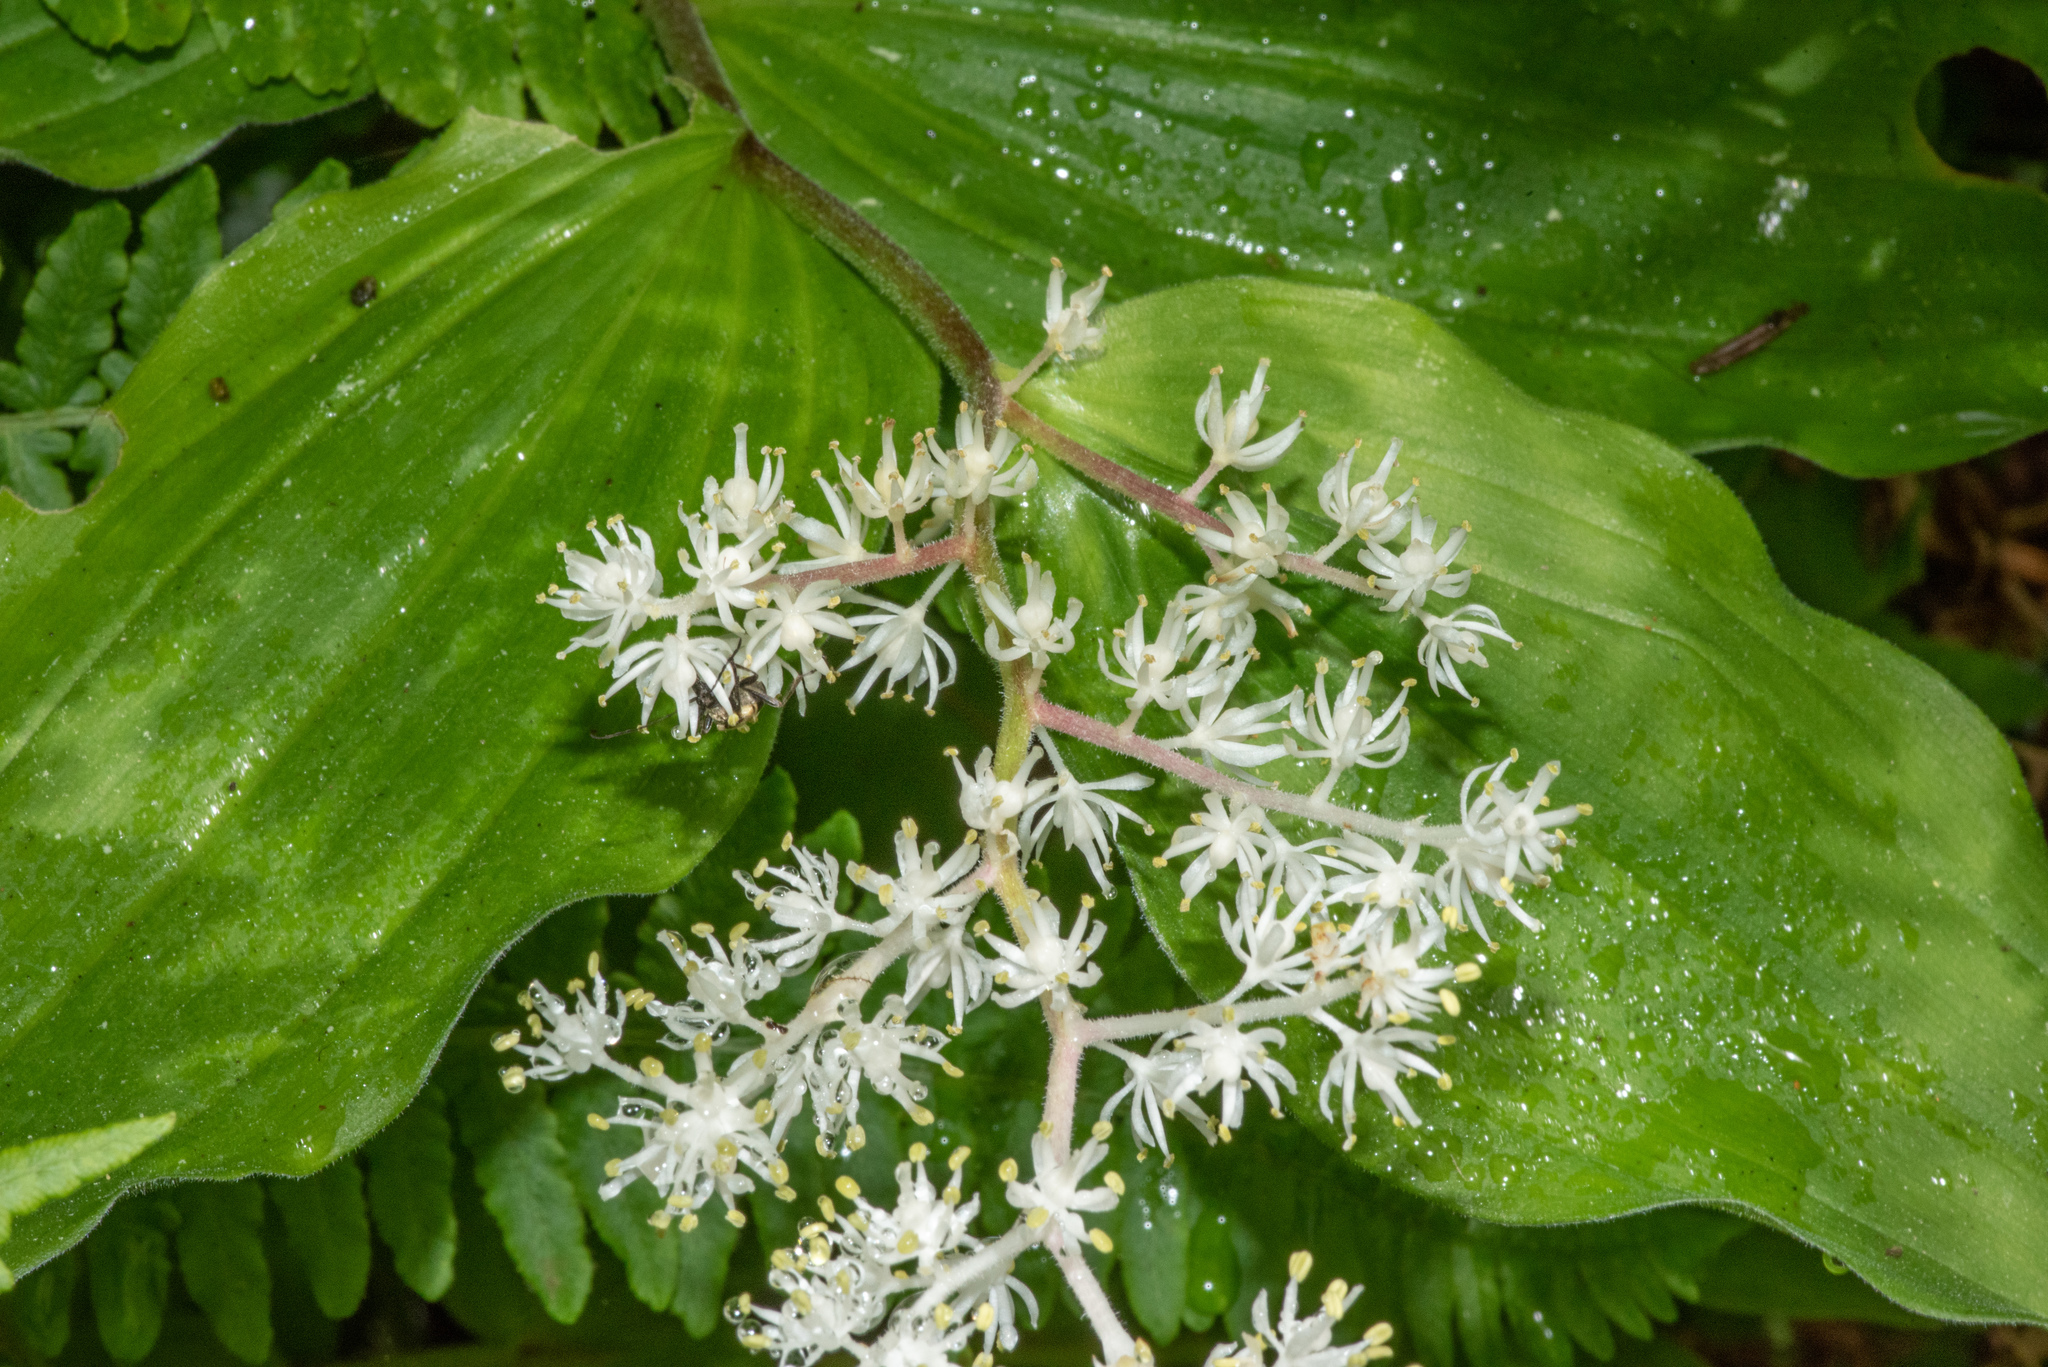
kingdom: Plantae
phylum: Tracheophyta
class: Liliopsida
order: Asparagales
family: Asparagaceae
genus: Maianthemum
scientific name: Maianthemum racemosum
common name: False spikenard
